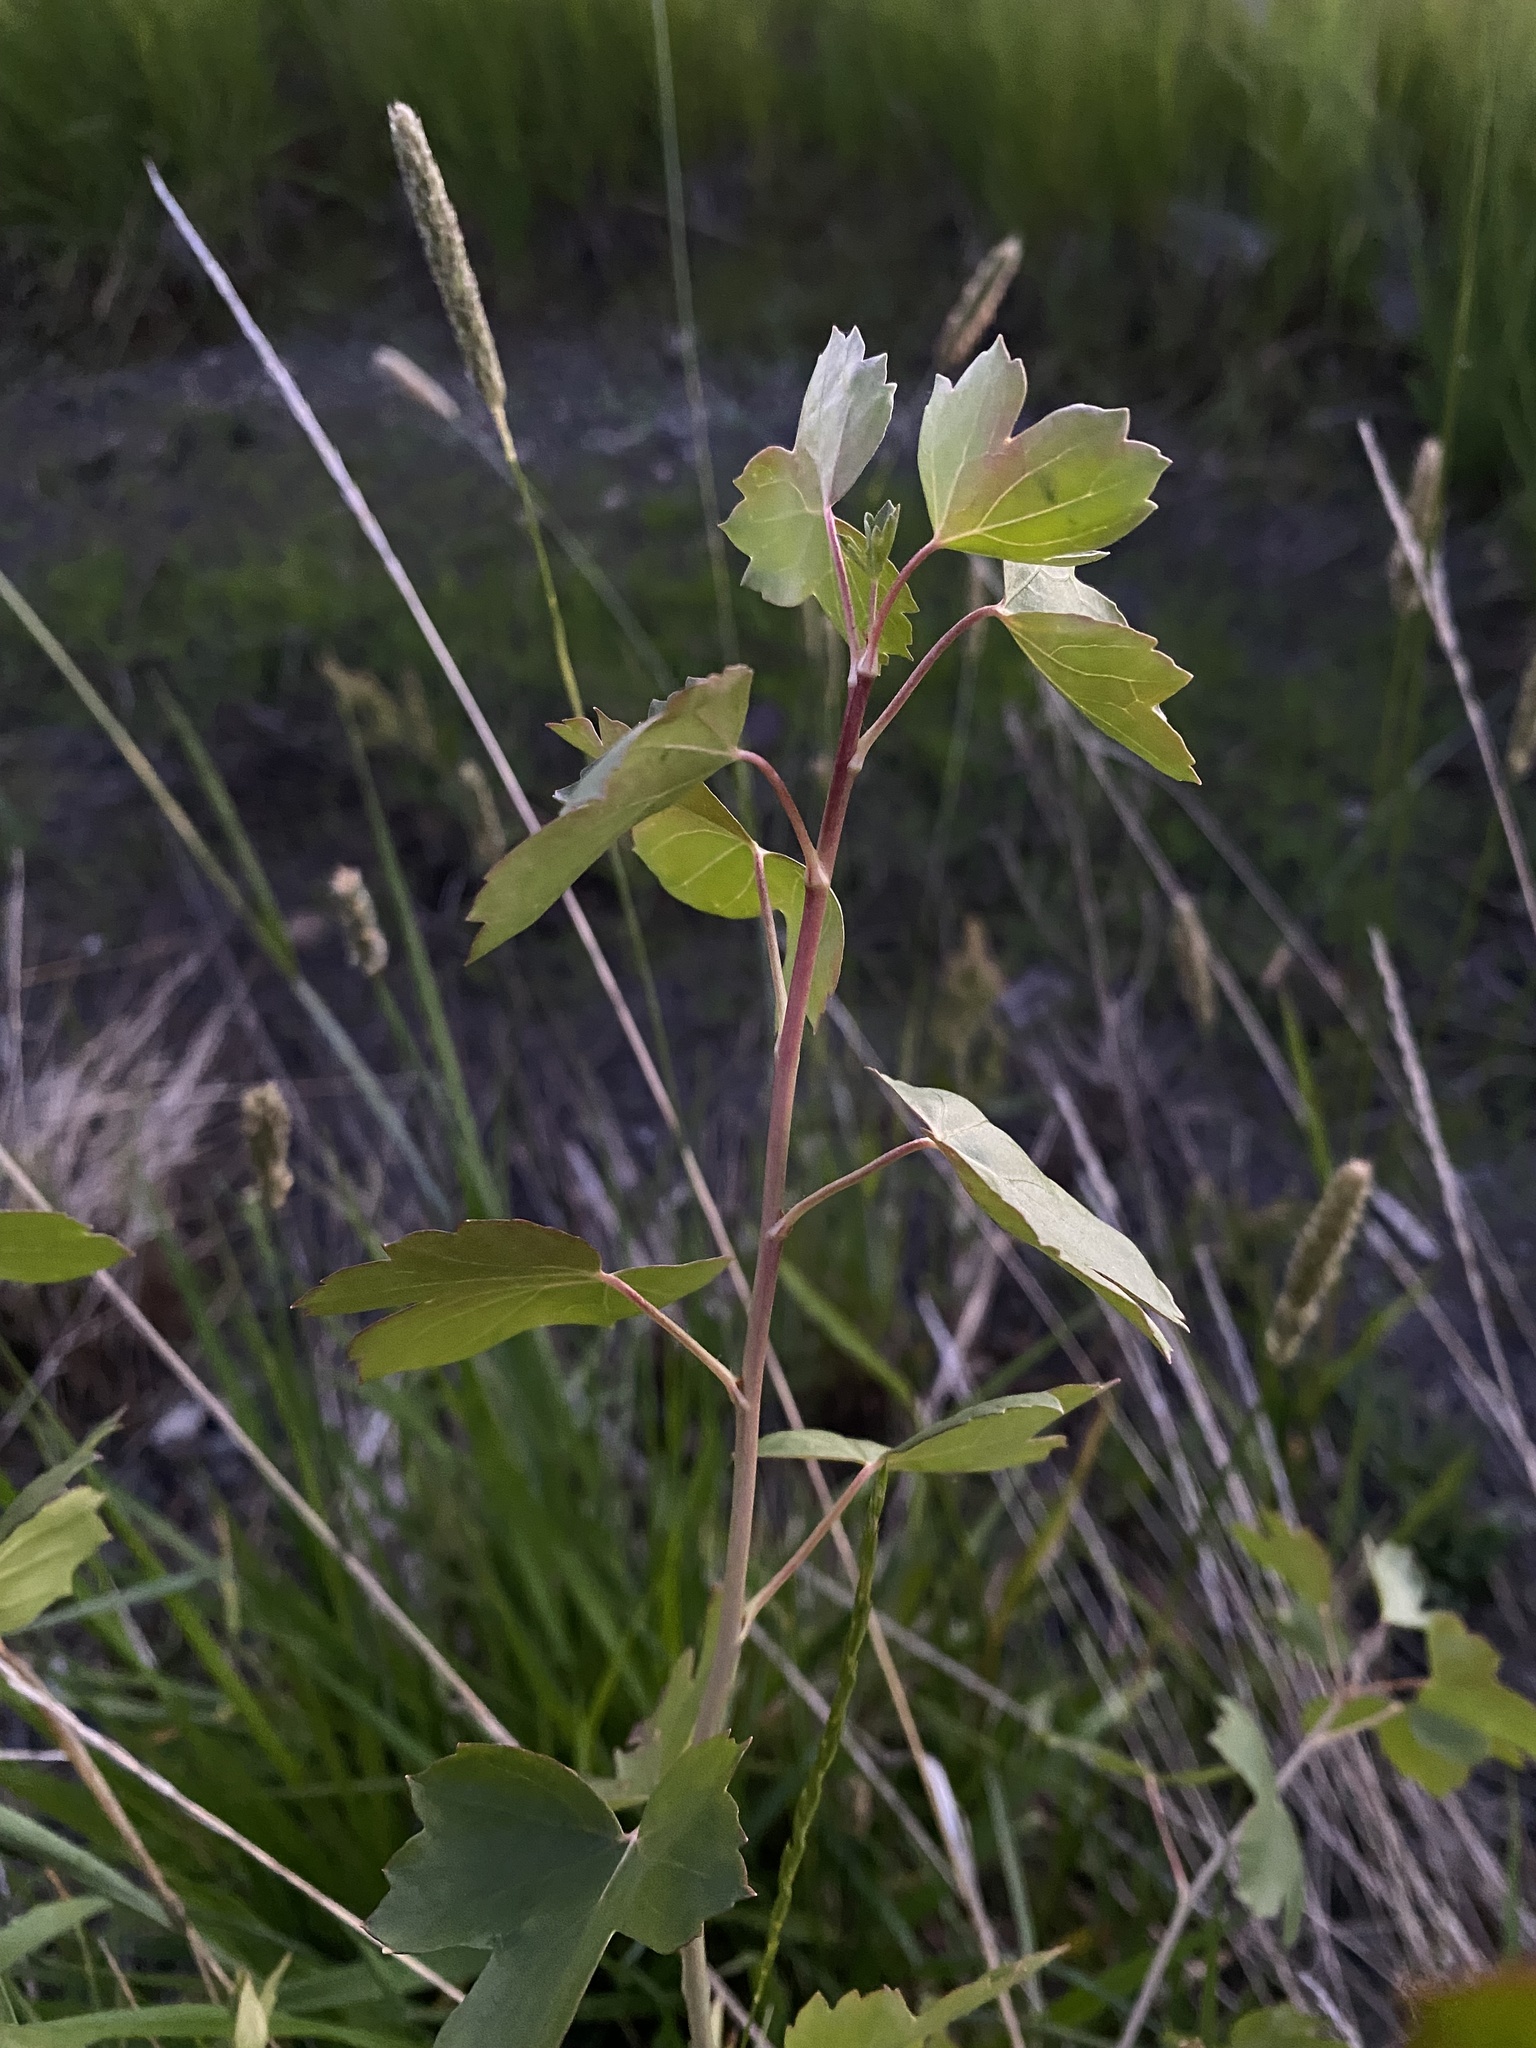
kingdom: Plantae
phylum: Tracheophyta
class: Magnoliopsida
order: Saxifragales
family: Grossulariaceae
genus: Ribes
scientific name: Ribes aureum
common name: Golden currant
